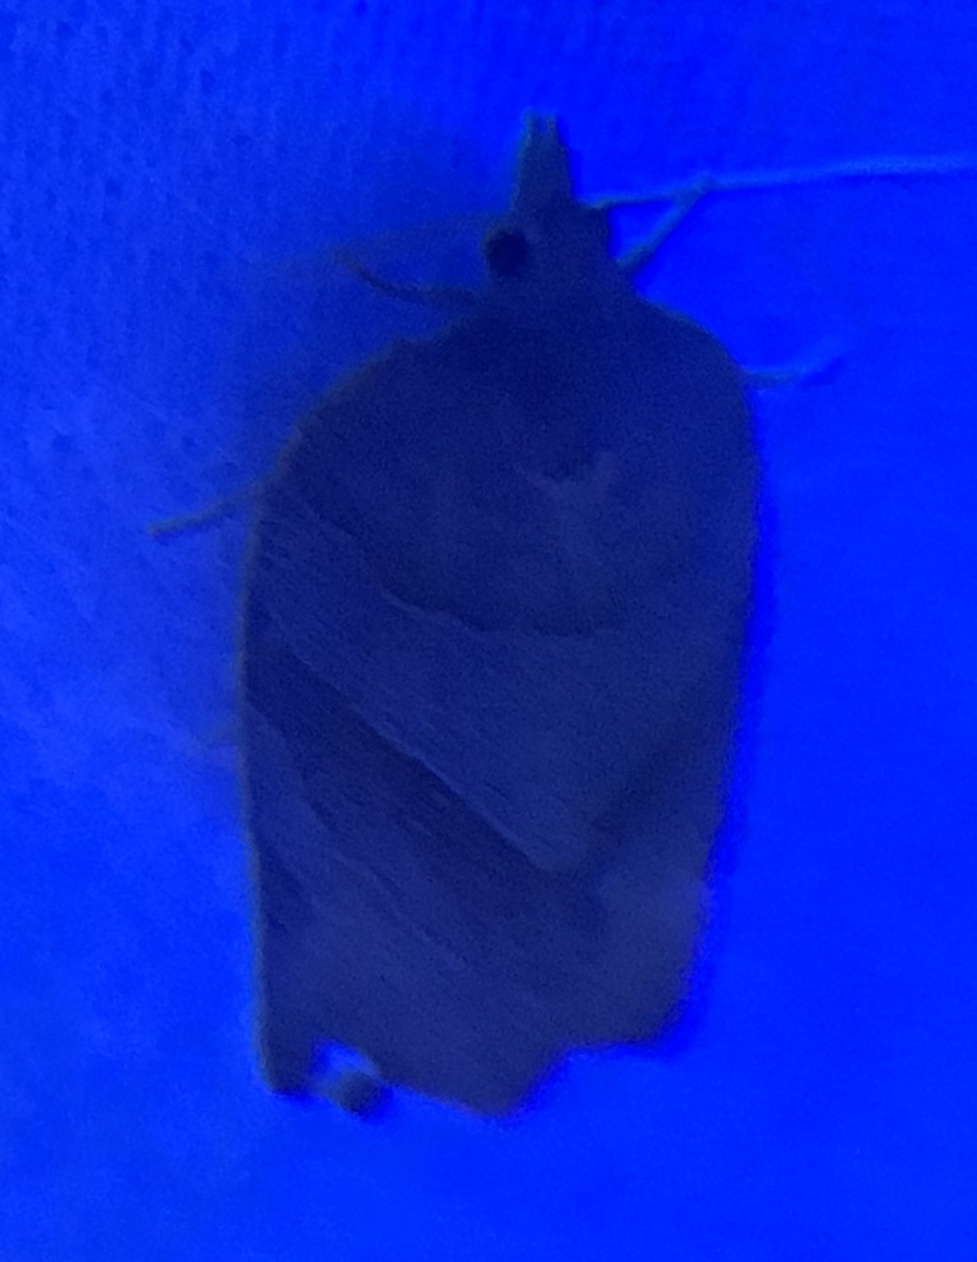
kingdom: Animalia
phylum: Arthropoda
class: Insecta
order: Lepidoptera
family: Tortricidae
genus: Pandemis
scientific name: Pandemis limitata
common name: Three-lined leafroller moth
